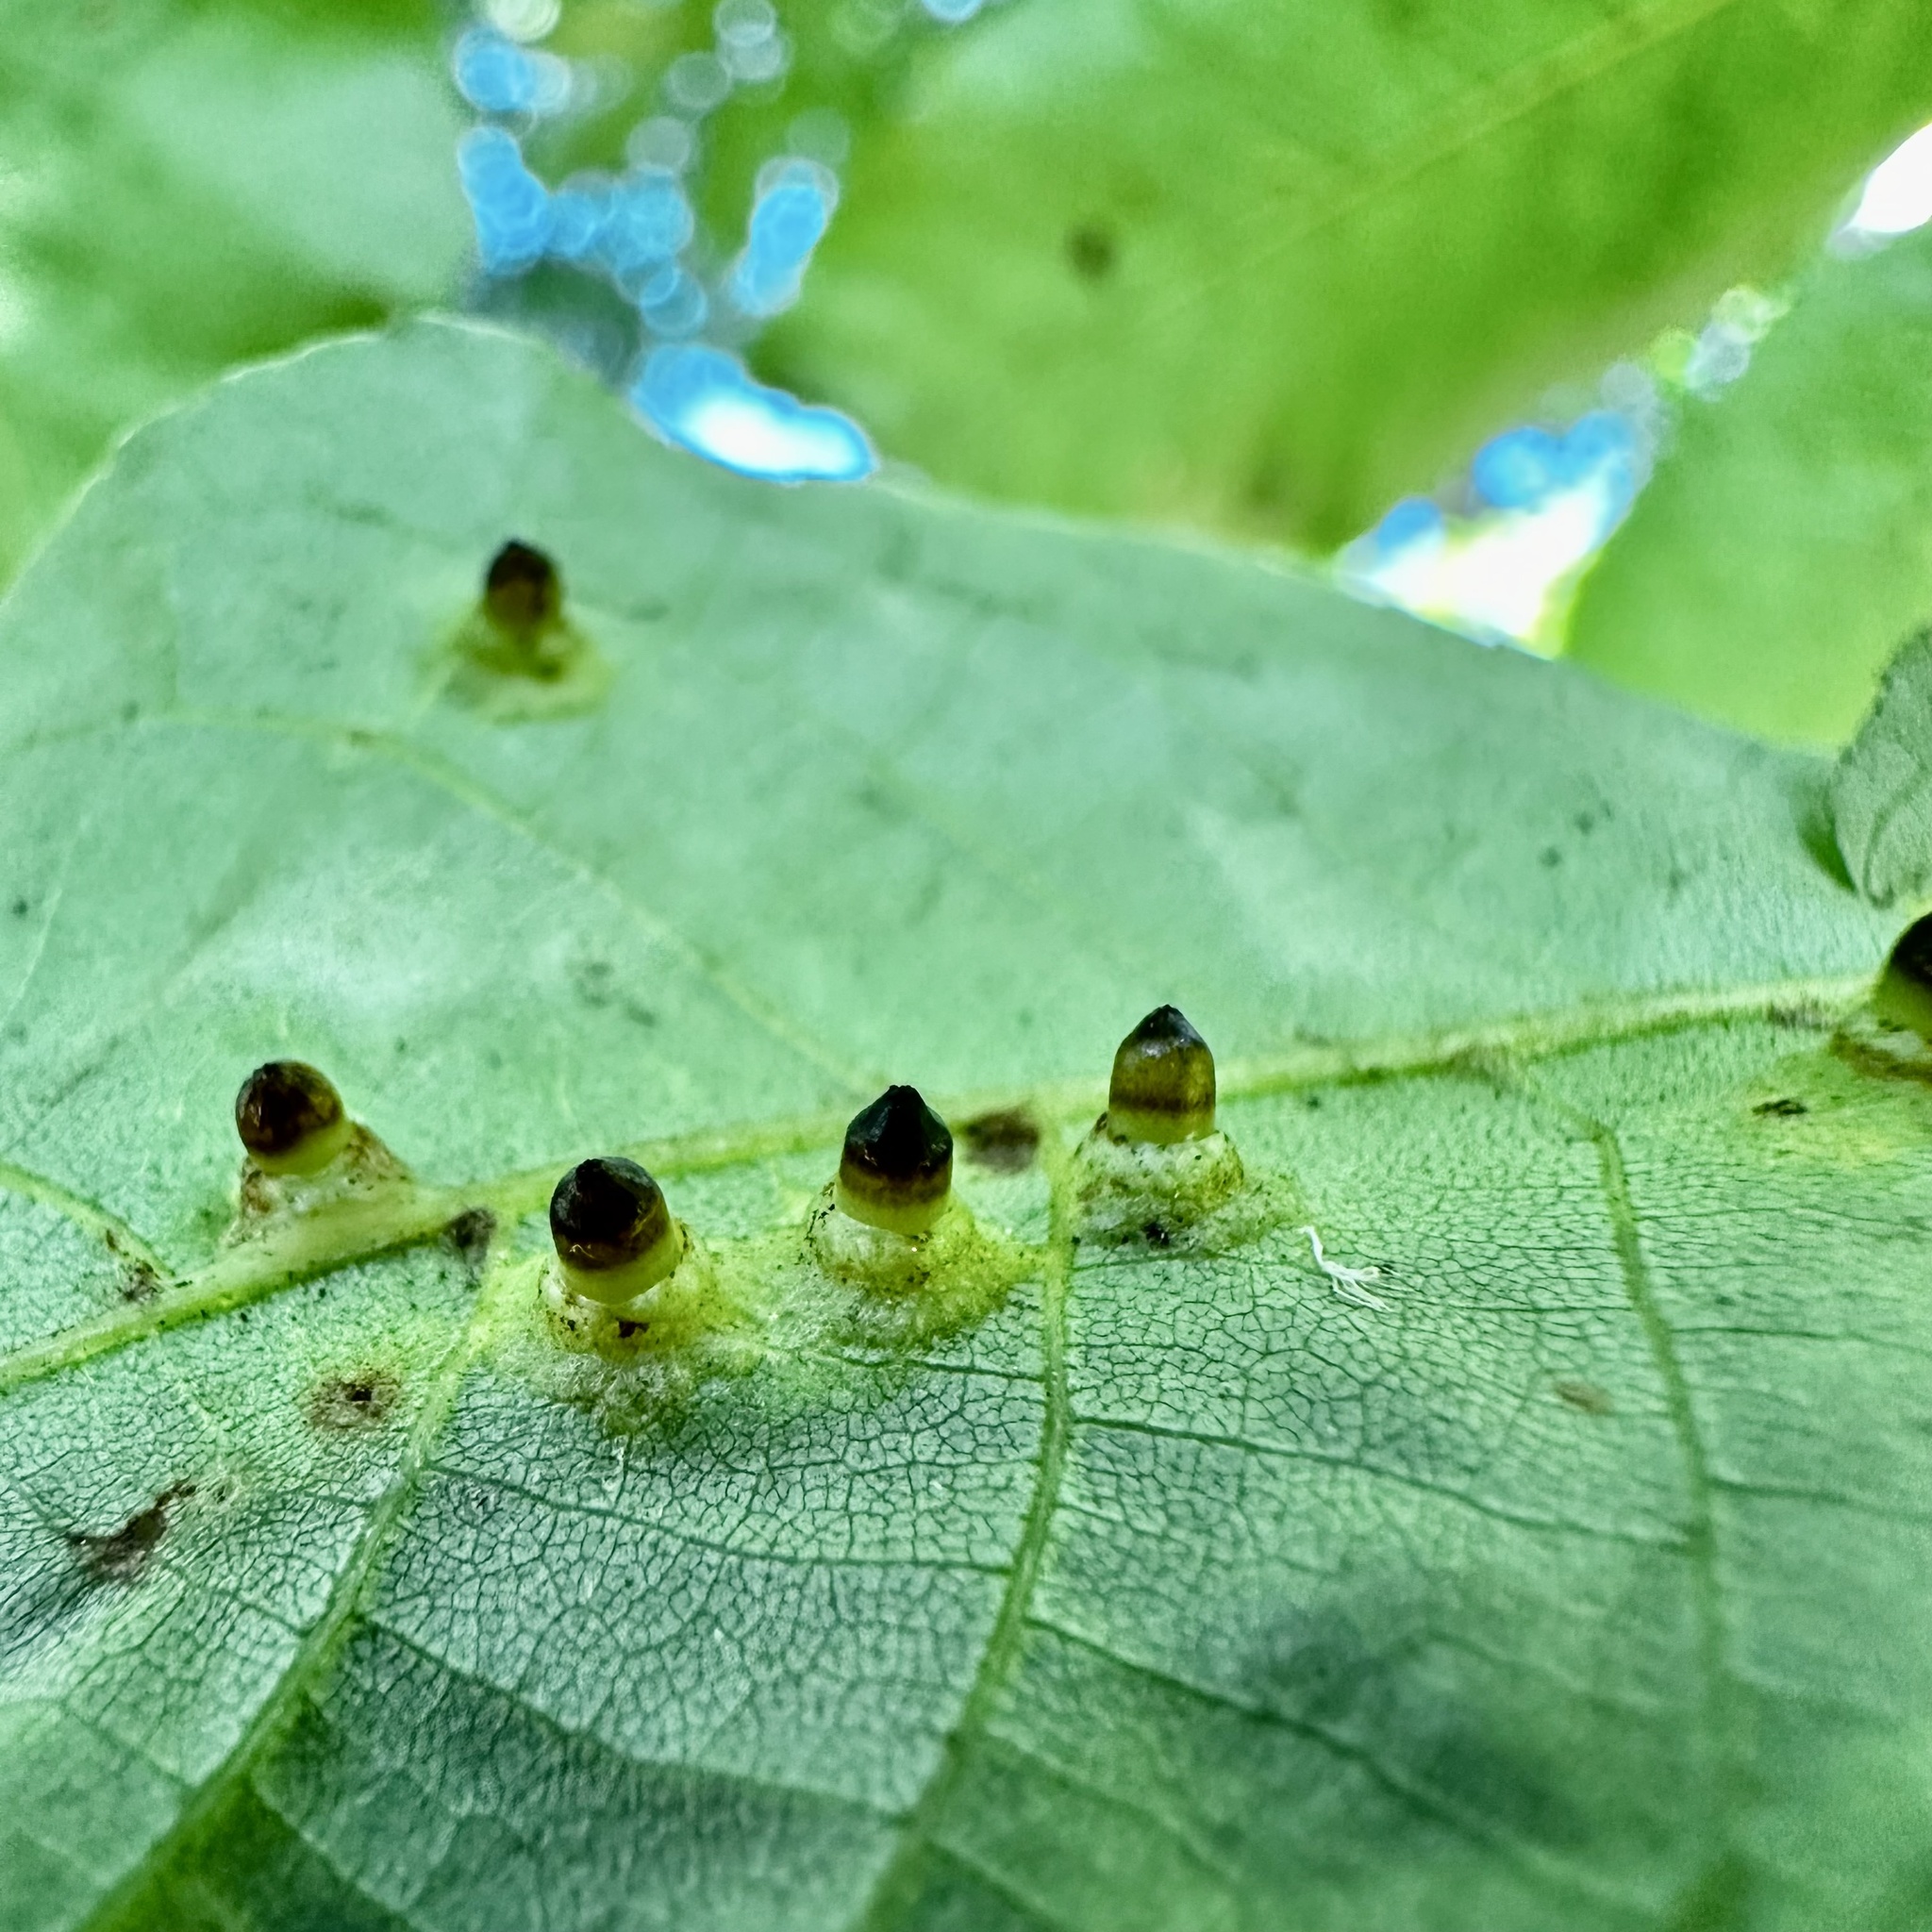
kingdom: Animalia
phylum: Arthropoda
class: Insecta
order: Diptera
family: Cecidomyiidae
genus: Caryomyia
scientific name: Caryomyia tubicola
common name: Hickory bullet gall midge
